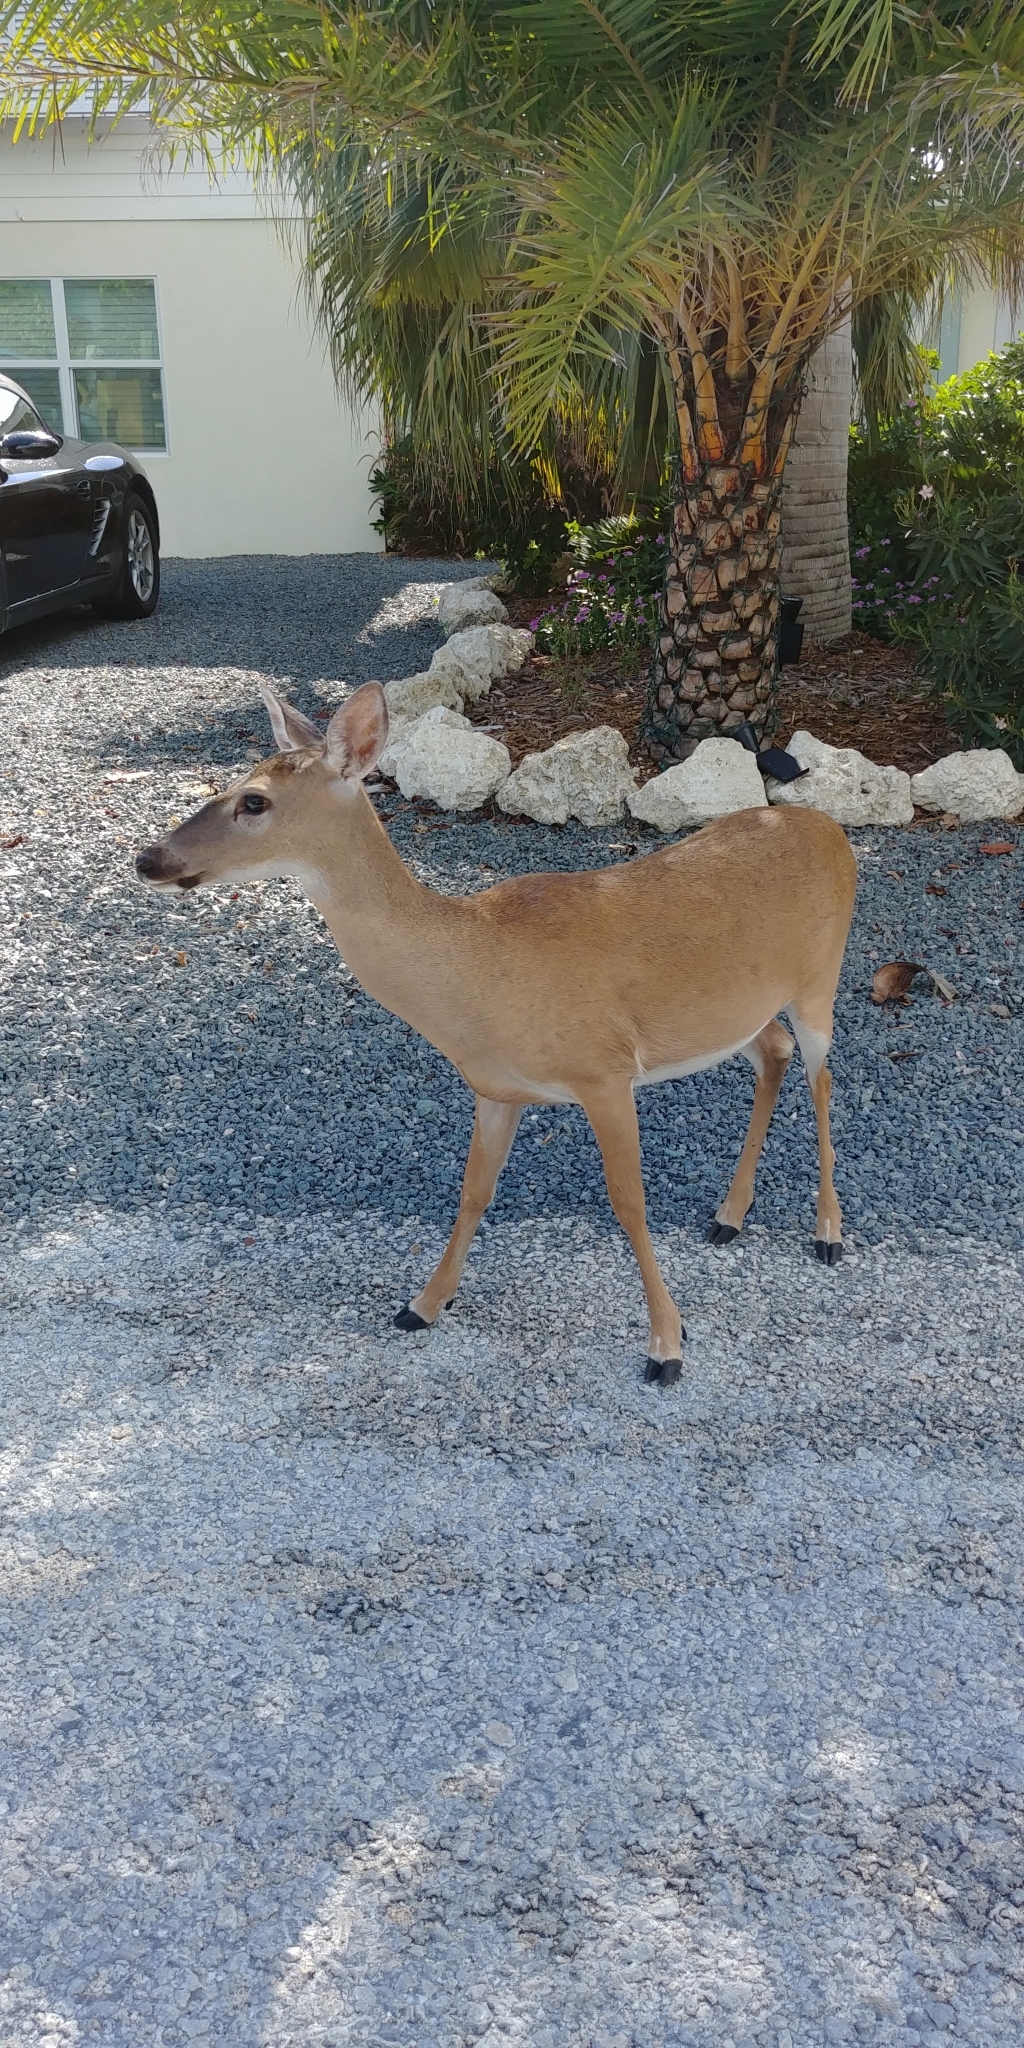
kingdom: Animalia
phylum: Chordata
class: Mammalia
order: Artiodactyla
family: Cervidae
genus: Odocoileus
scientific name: Odocoileus virginianus
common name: White-tailed deer
